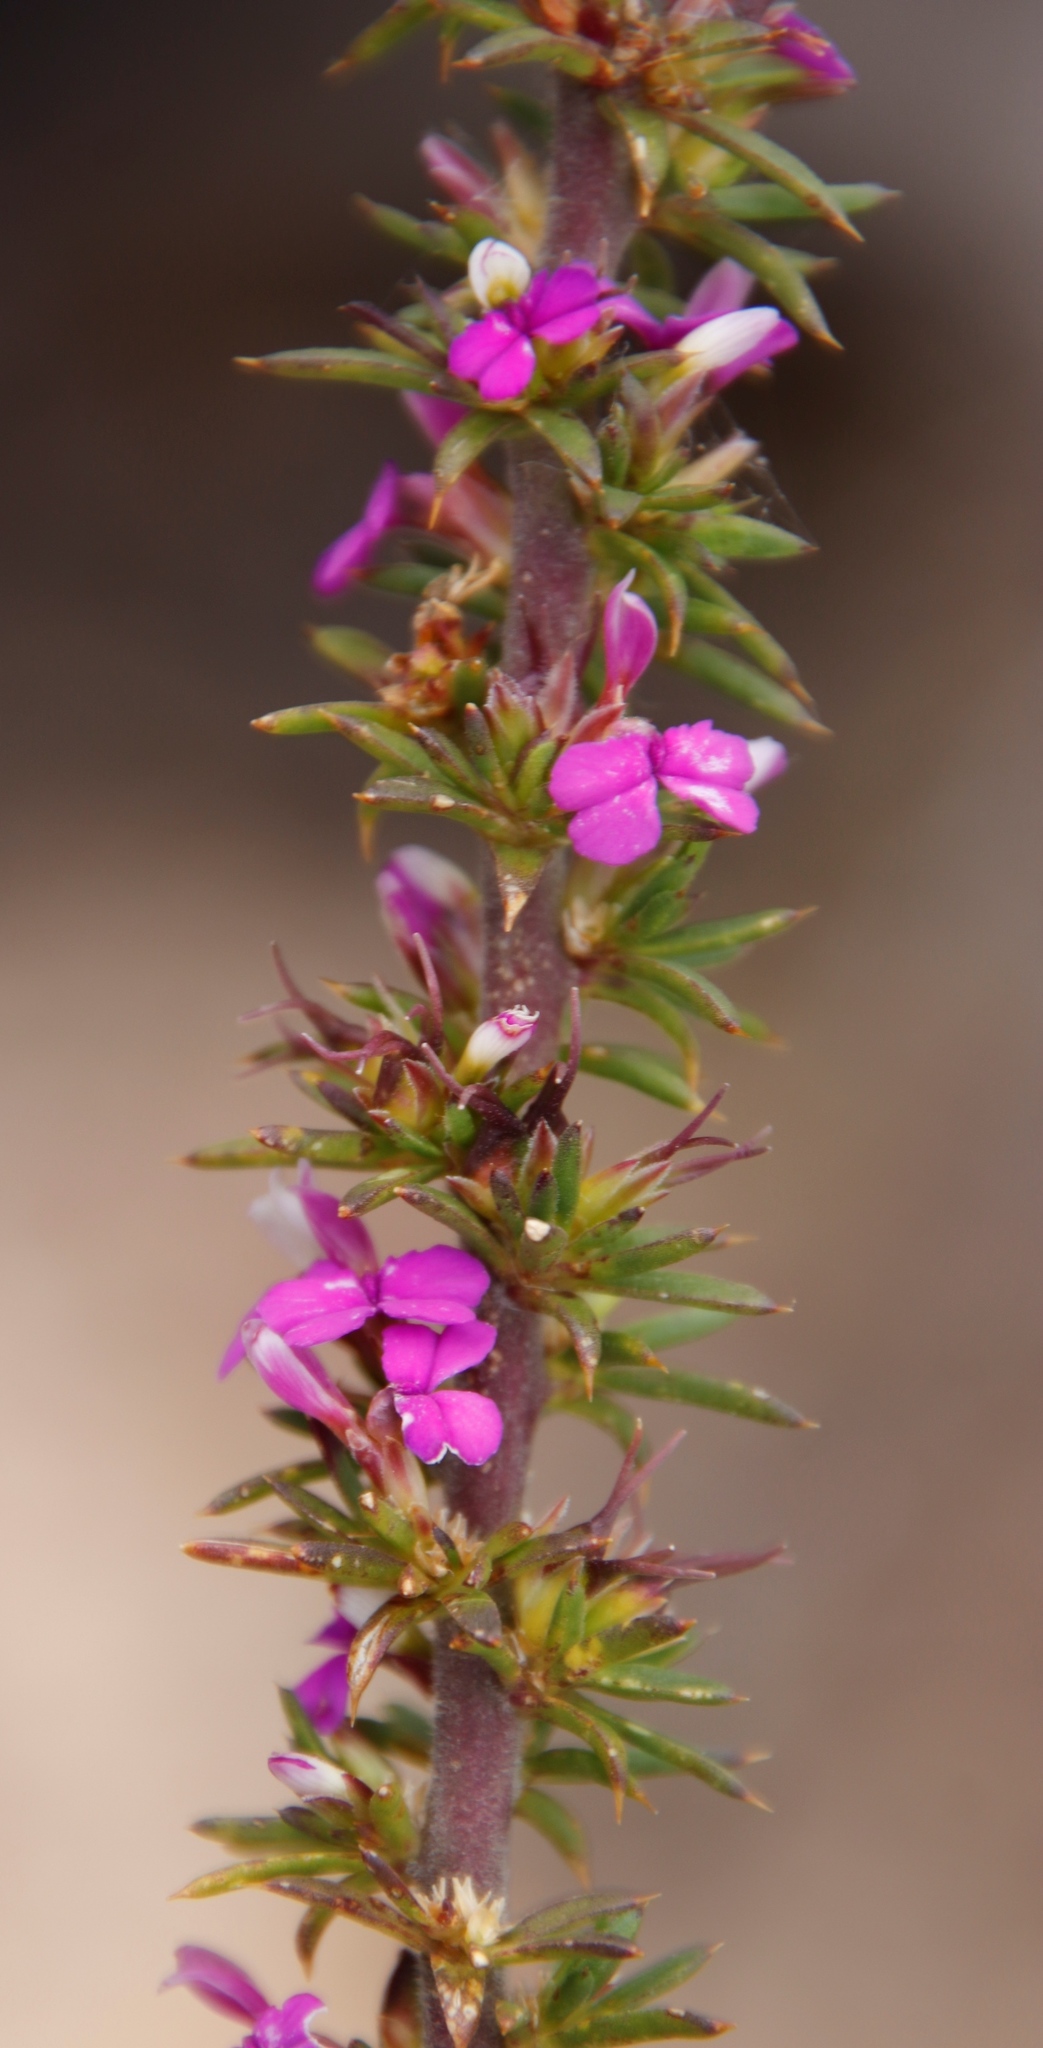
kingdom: Plantae
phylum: Tracheophyta
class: Magnoliopsida
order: Fabales
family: Polygalaceae
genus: Muraltia
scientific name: Muraltia heisteria
